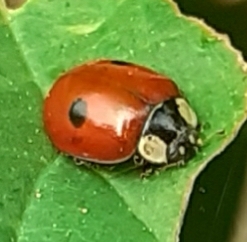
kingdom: Animalia
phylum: Arthropoda
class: Insecta
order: Coleoptera
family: Coccinellidae
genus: Adalia
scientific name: Adalia bipunctata
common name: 2-spot ladybird
